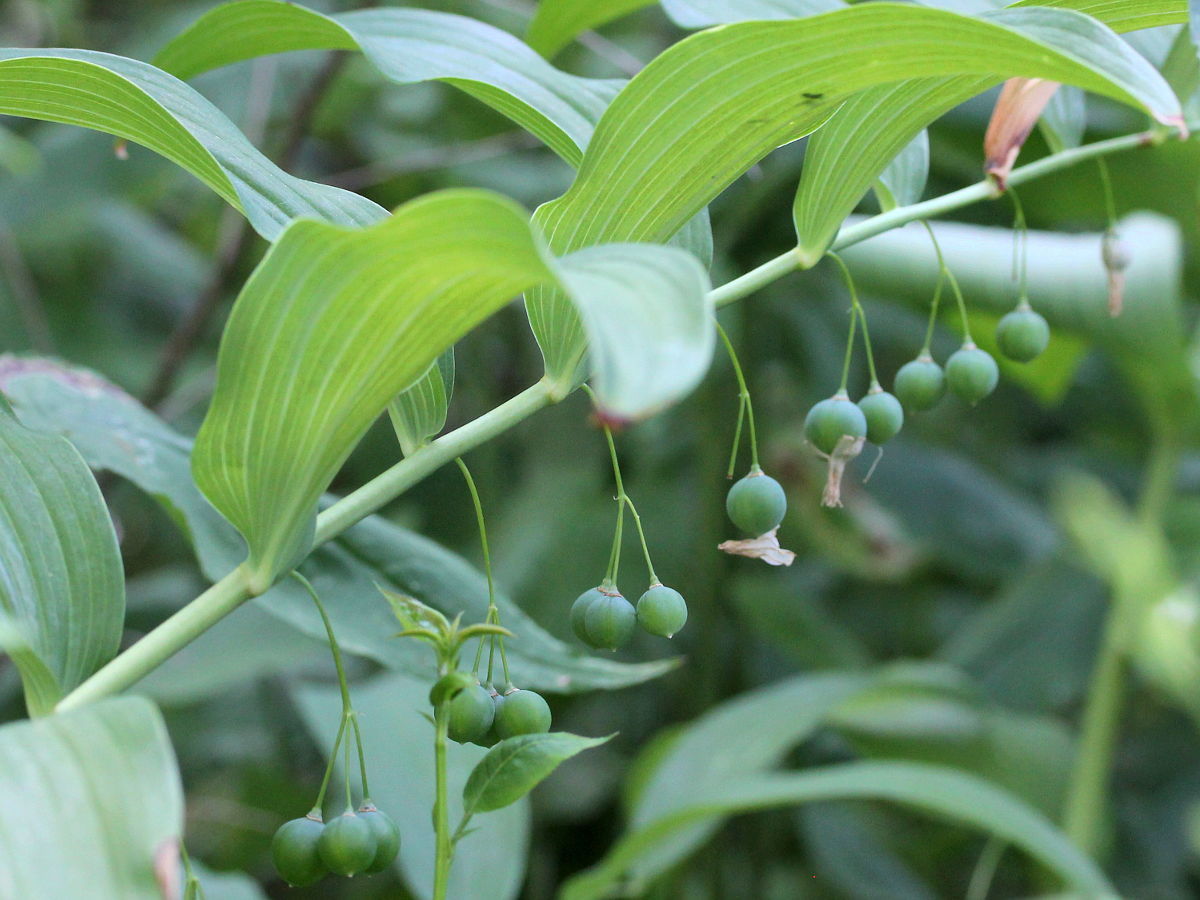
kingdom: Plantae
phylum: Tracheophyta
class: Liliopsida
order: Asparagales
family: Asparagaceae
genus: Polygonatum
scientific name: Polygonatum biflorum
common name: American solomon's-seal
